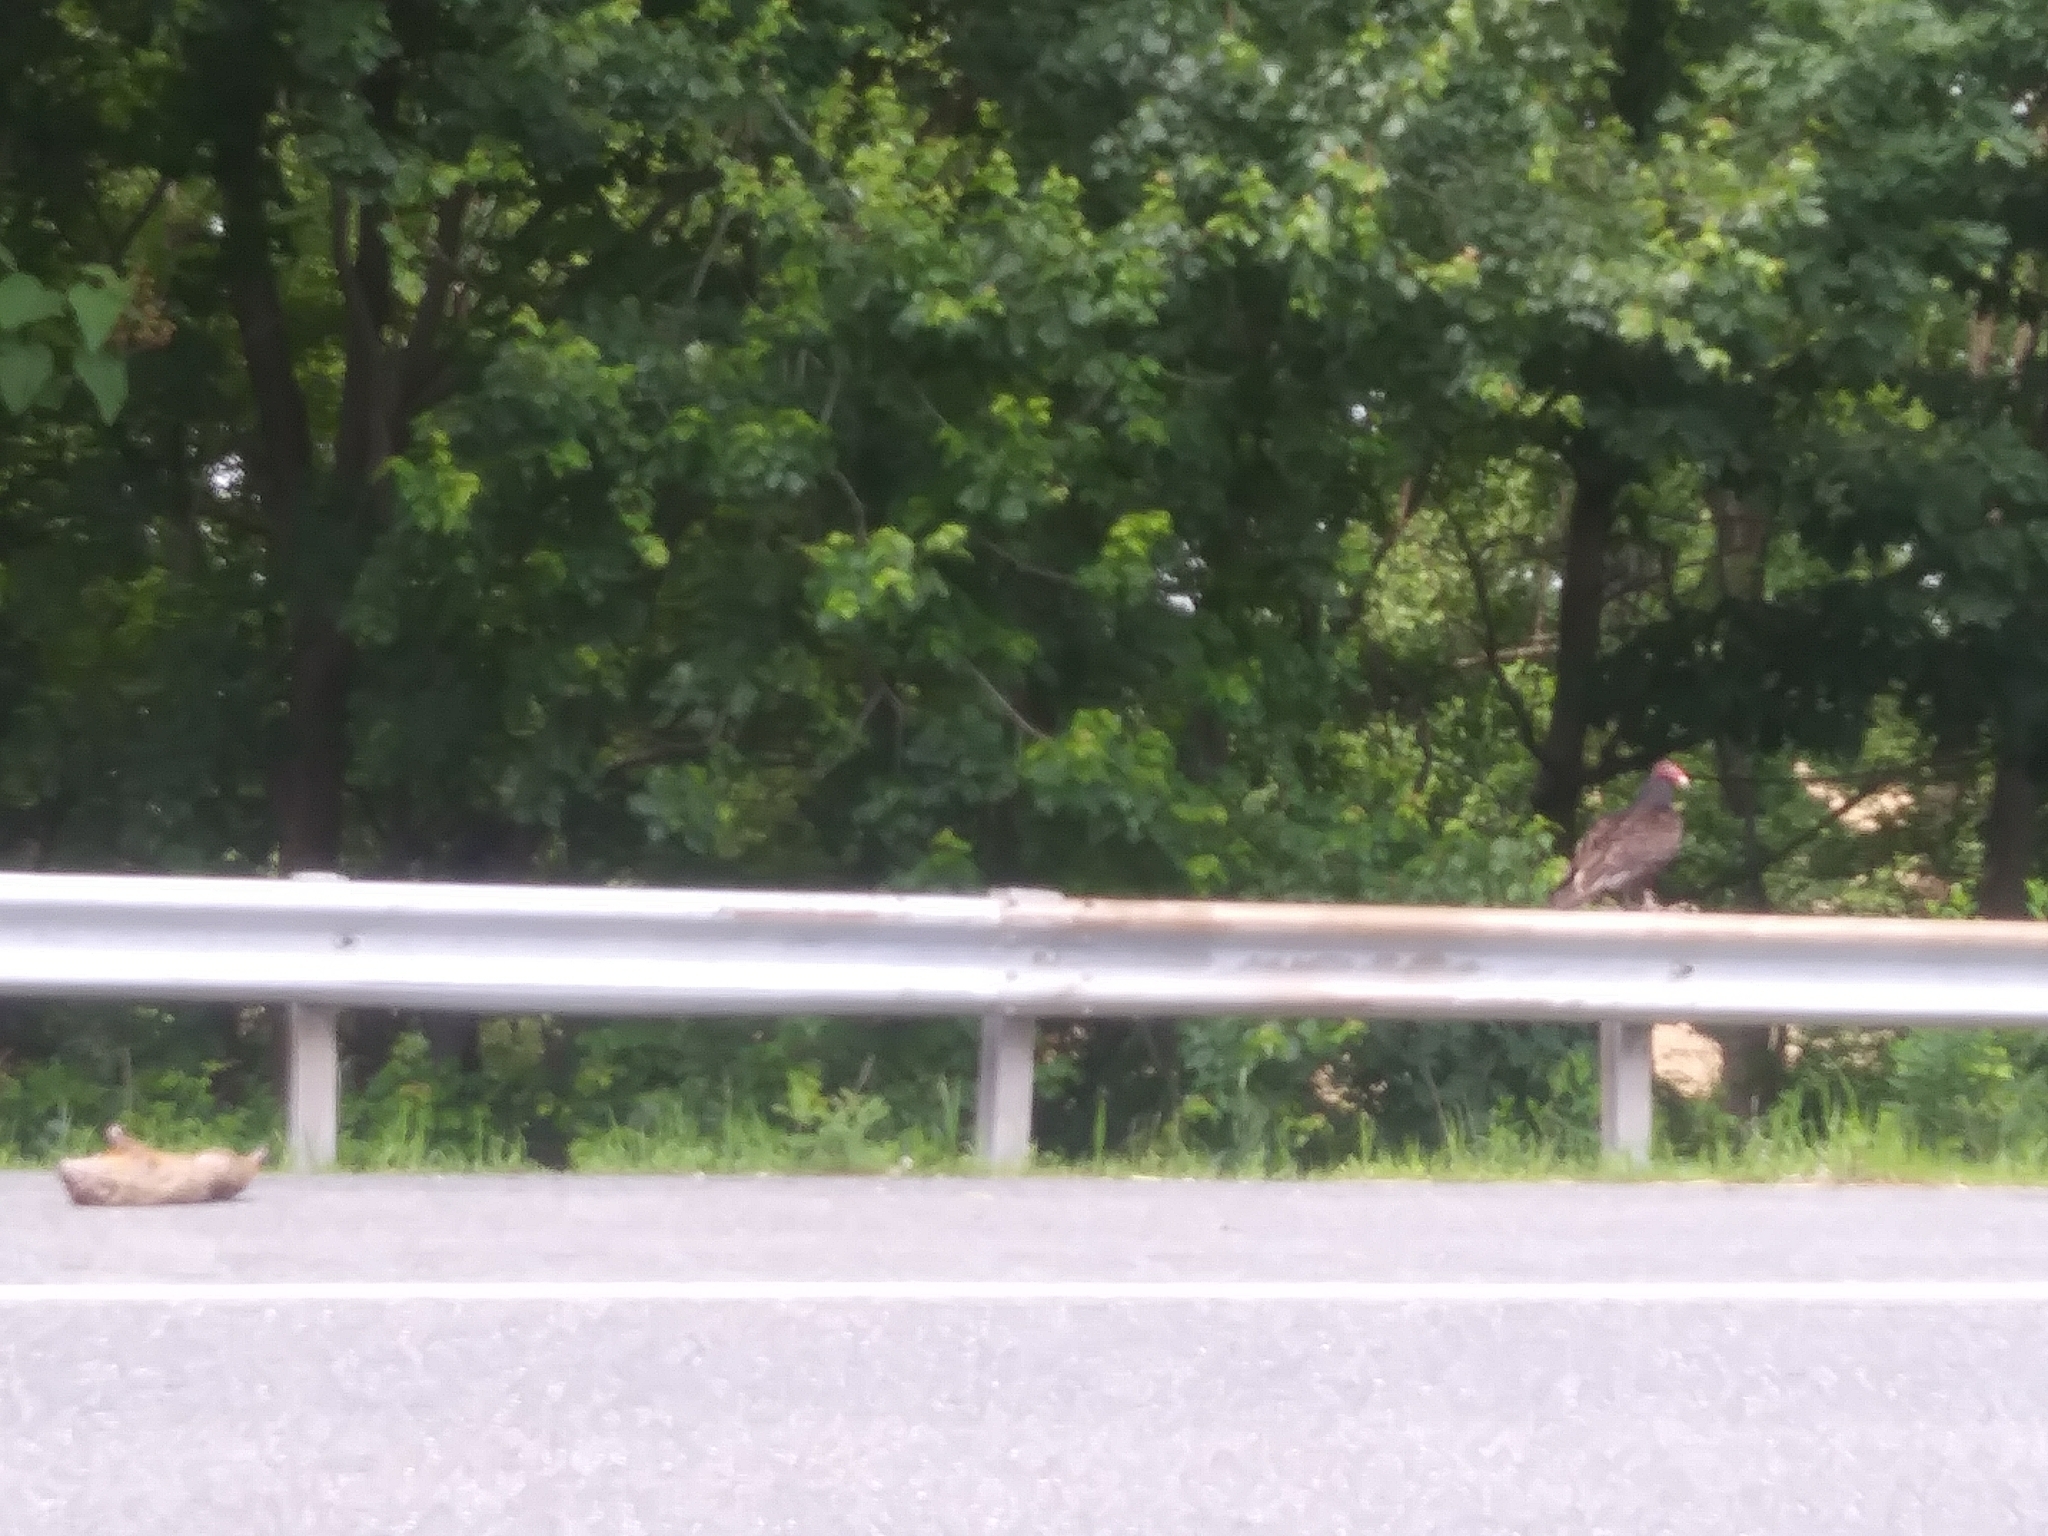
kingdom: Animalia
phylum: Chordata
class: Aves
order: Accipitriformes
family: Cathartidae
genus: Cathartes
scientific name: Cathartes aura
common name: Turkey vulture
